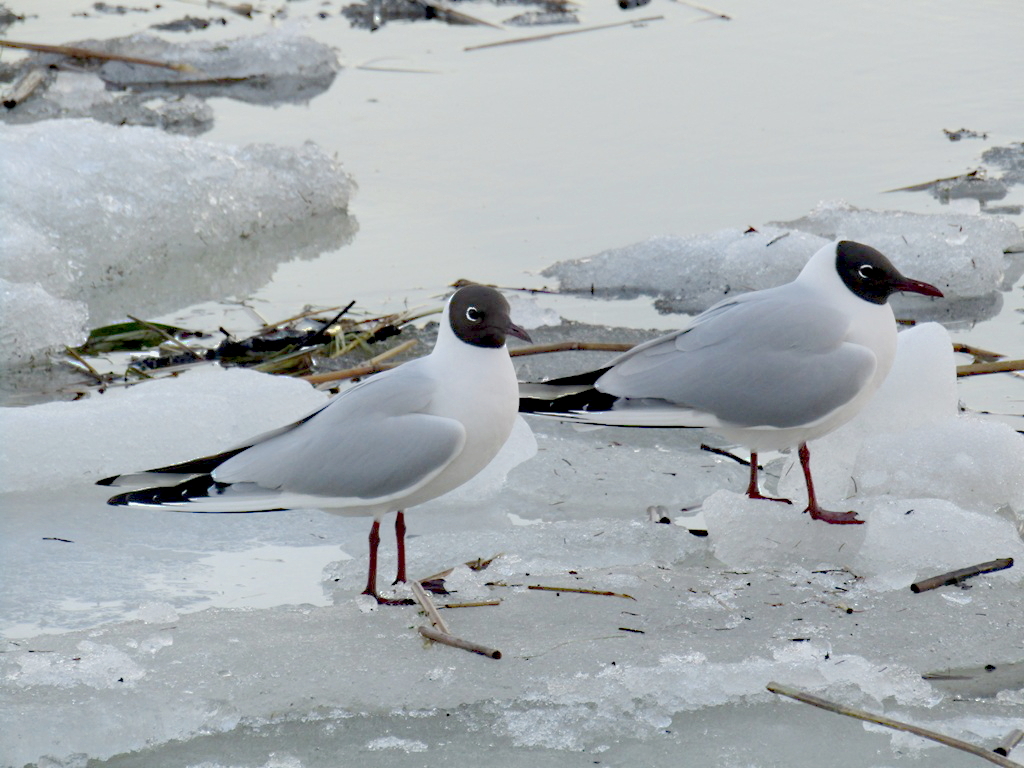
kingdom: Animalia
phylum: Chordata
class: Aves
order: Charadriiformes
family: Laridae
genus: Chroicocephalus
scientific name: Chroicocephalus ridibundus
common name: Black-headed gull
